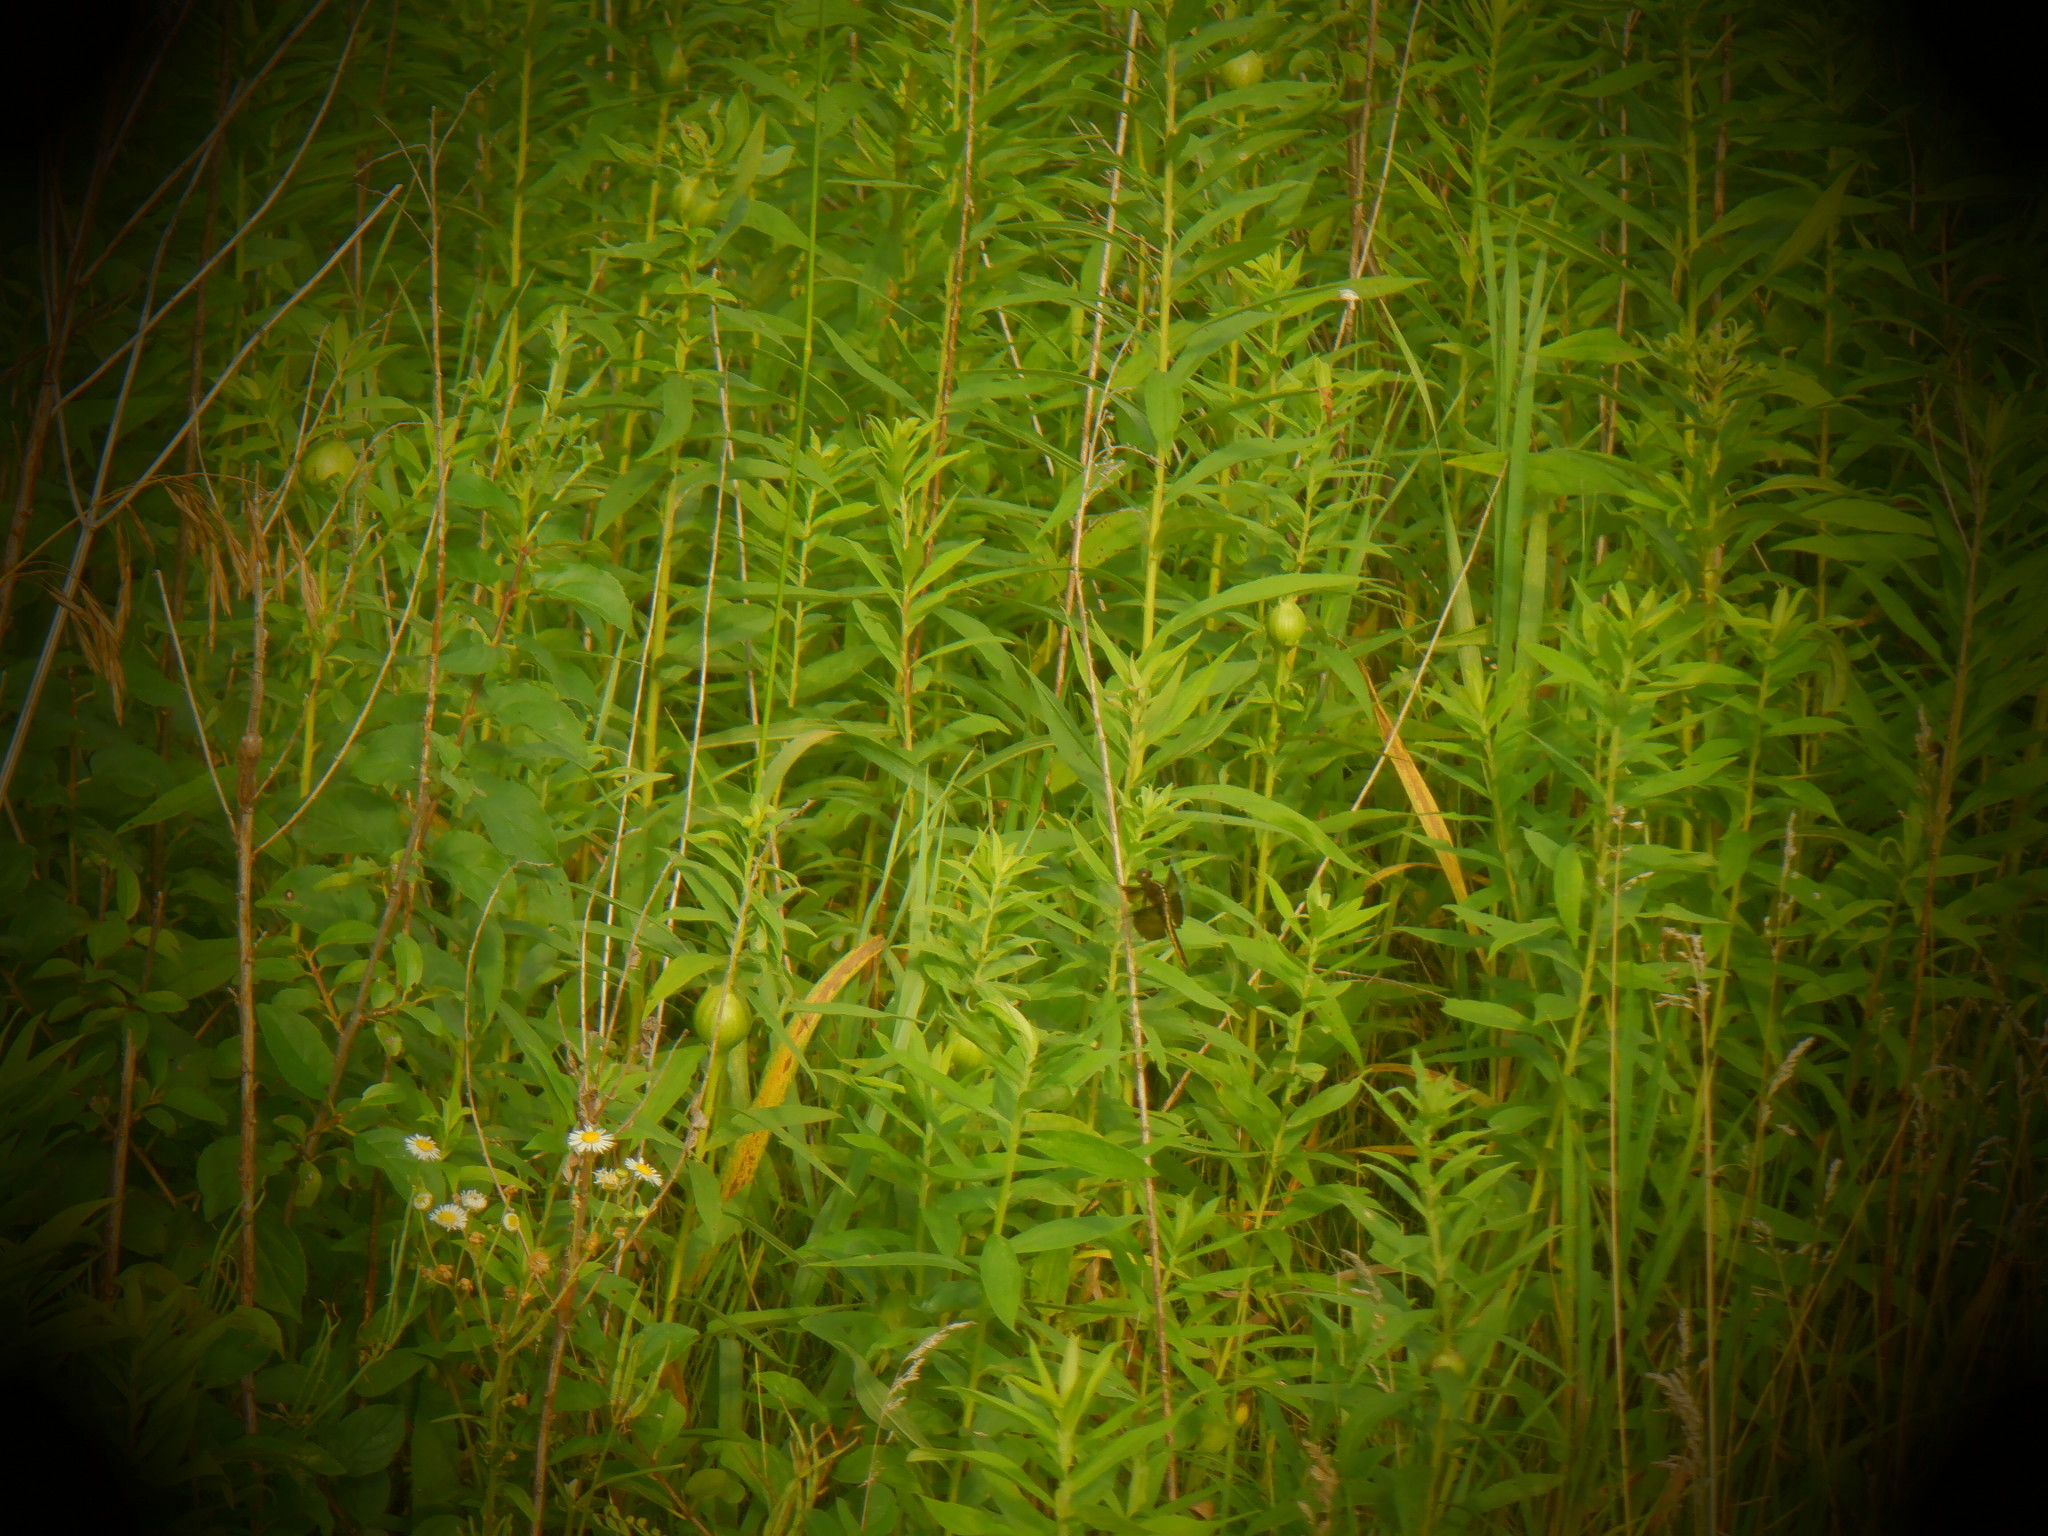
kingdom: Animalia
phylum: Arthropoda
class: Insecta
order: Diptera
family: Tephritidae
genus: Eurosta
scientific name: Eurosta solidaginis
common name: Goldenrod gall fly
